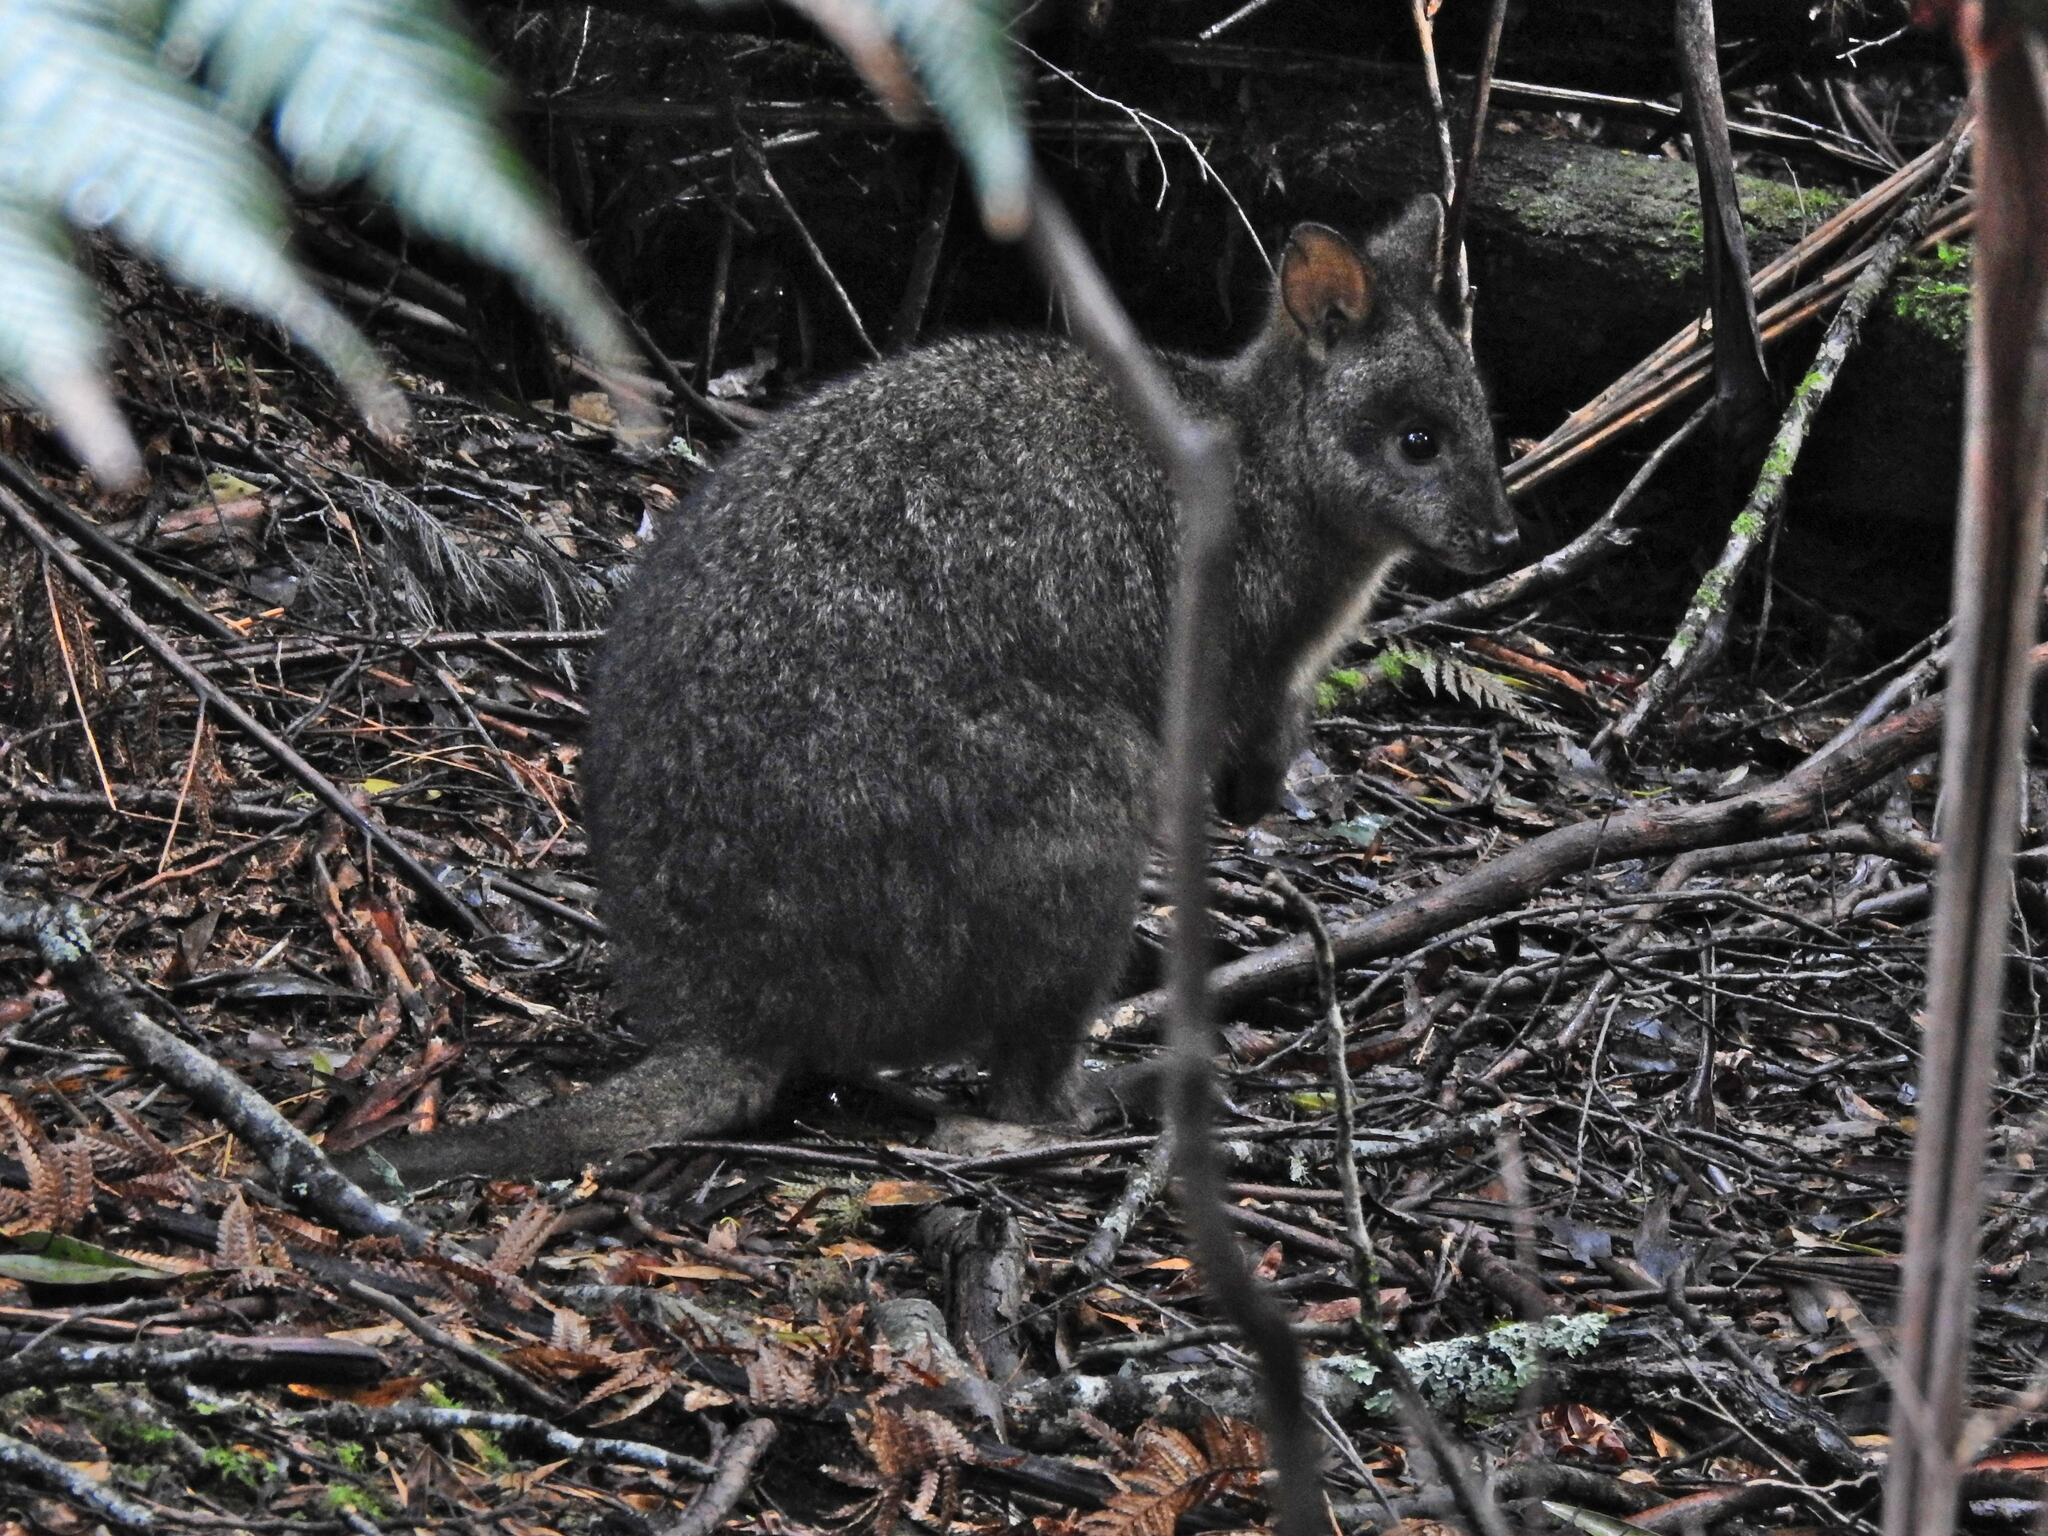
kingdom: Animalia
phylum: Chordata
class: Mammalia
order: Diprotodontia
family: Macropodidae
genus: Thylogale
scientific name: Thylogale billardierii
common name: Tasmanian pademelon
